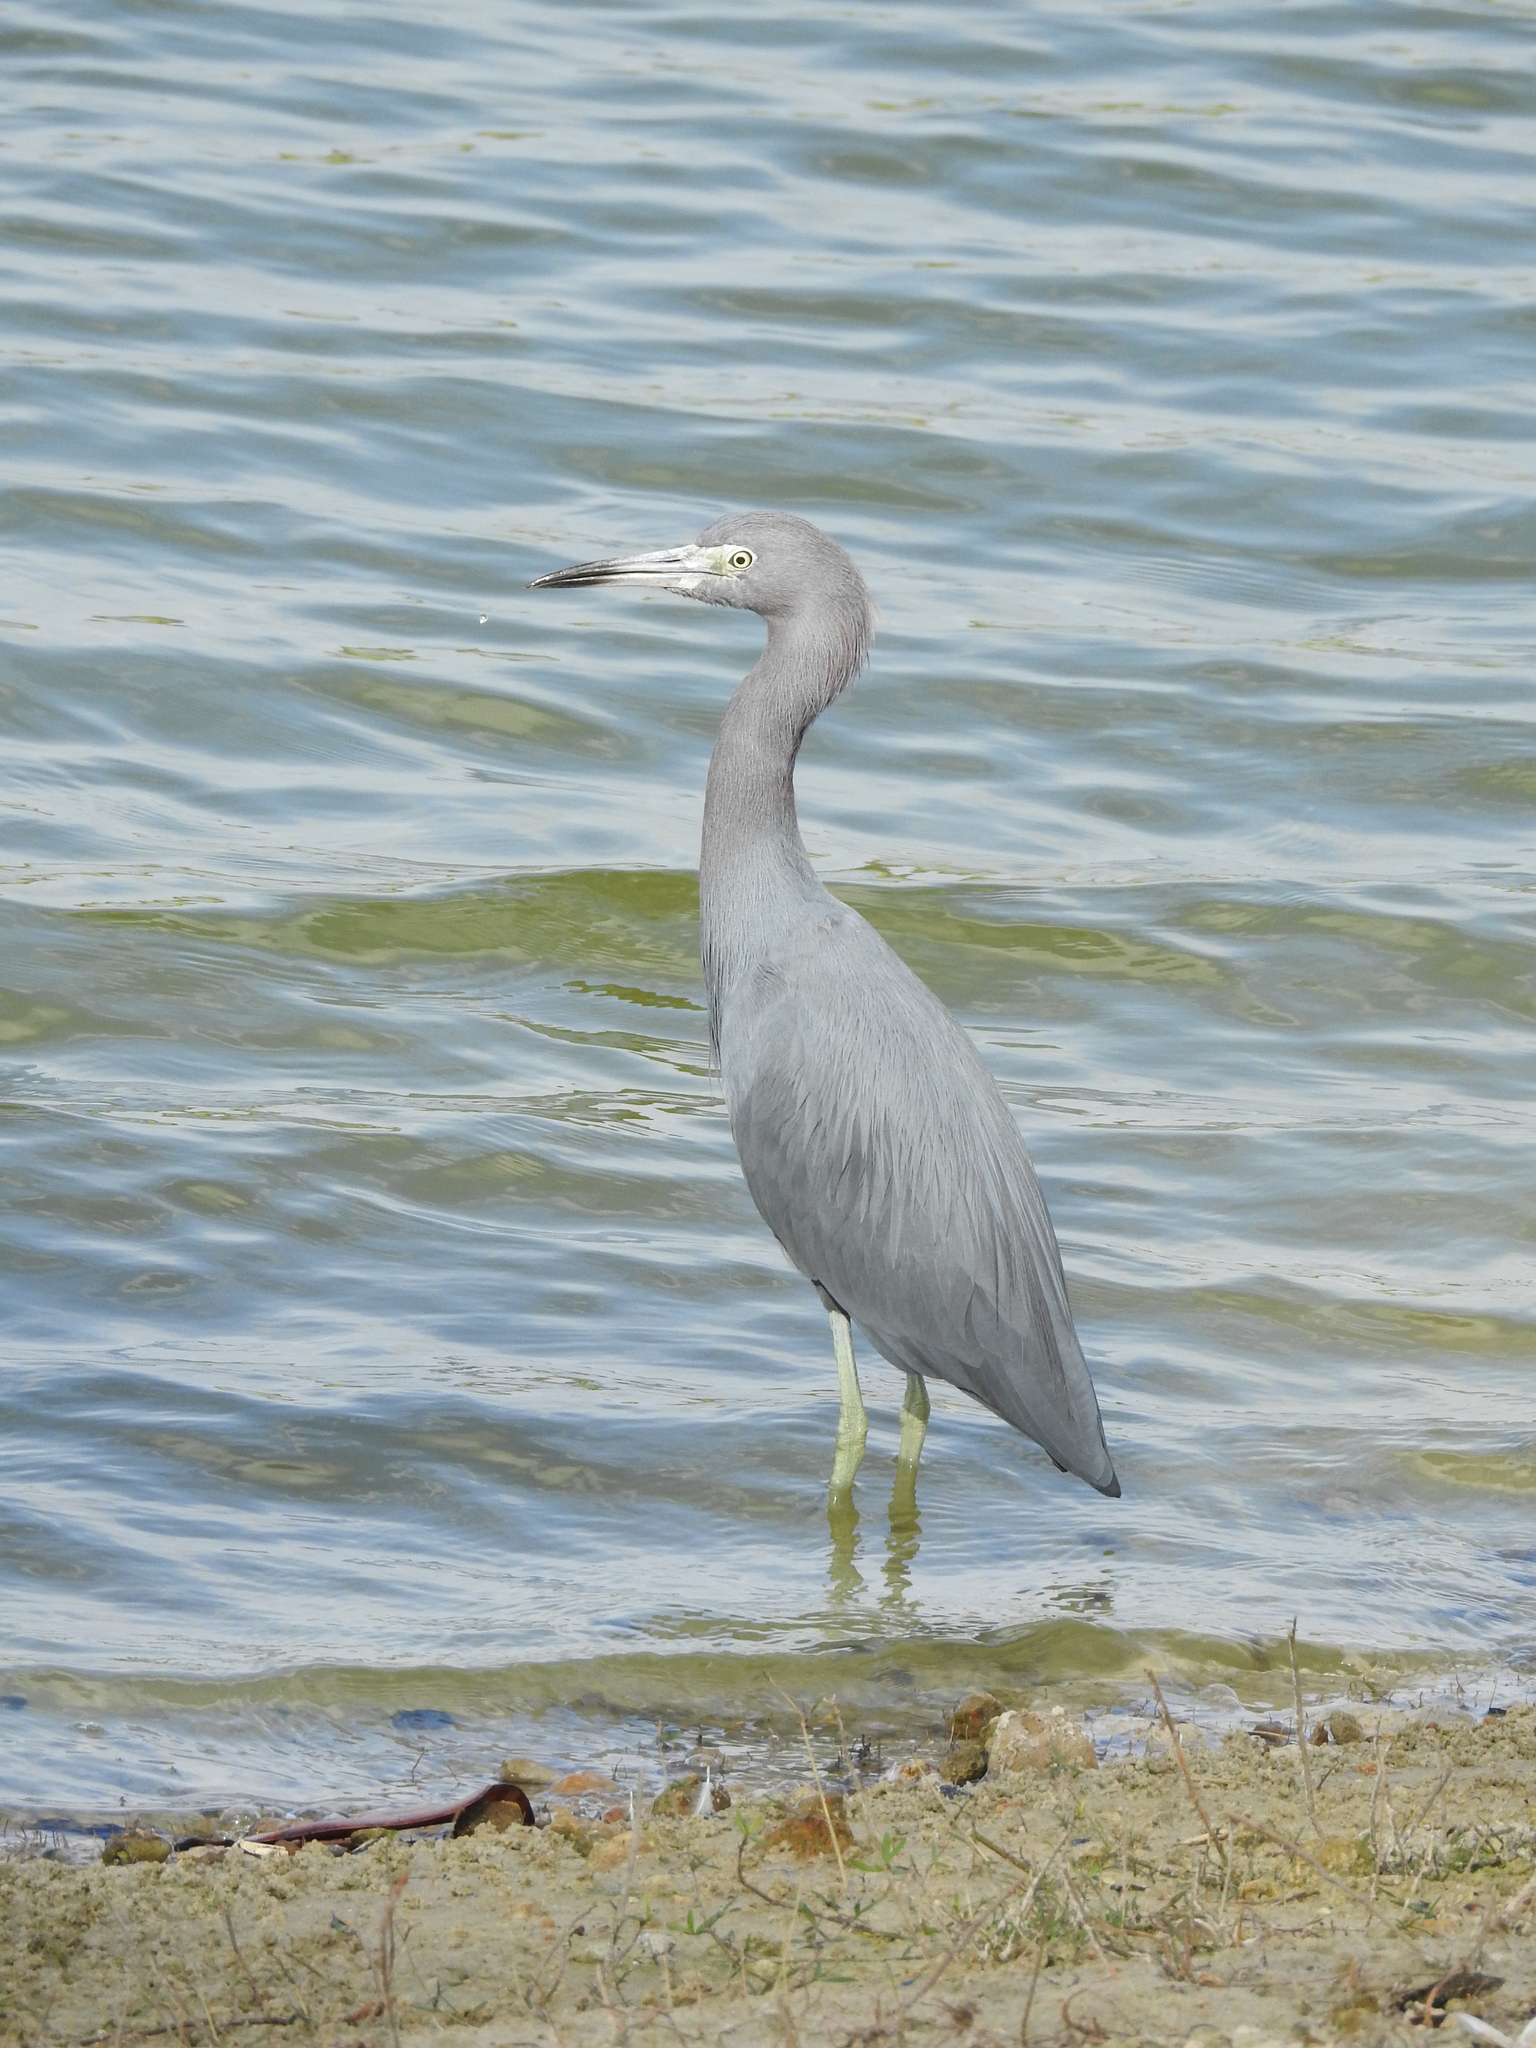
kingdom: Animalia
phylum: Chordata
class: Aves
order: Pelecaniformes
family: Ardeidae
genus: Egretta
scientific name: Egretta caerulea
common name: Little blue heron
